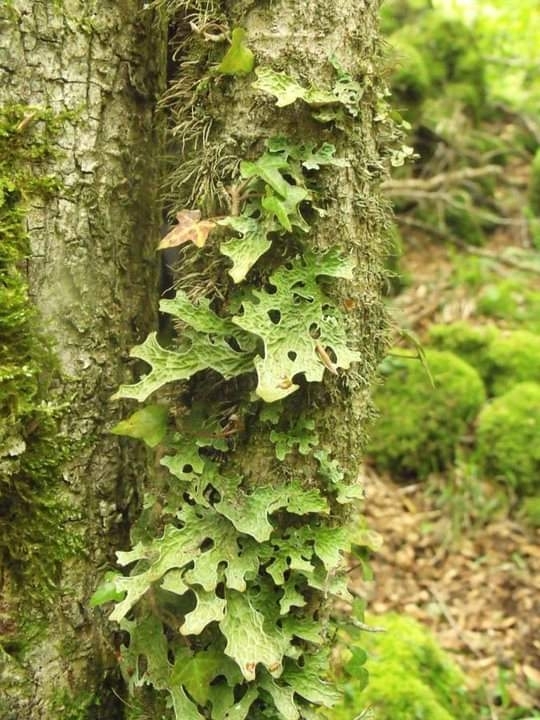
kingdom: Fungi
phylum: Ascomycota
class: Lecanoromycetes
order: Peltigerales
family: Lobariaceae
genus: Lobaria
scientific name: Lobaria pulmonaria
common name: Lungwort
